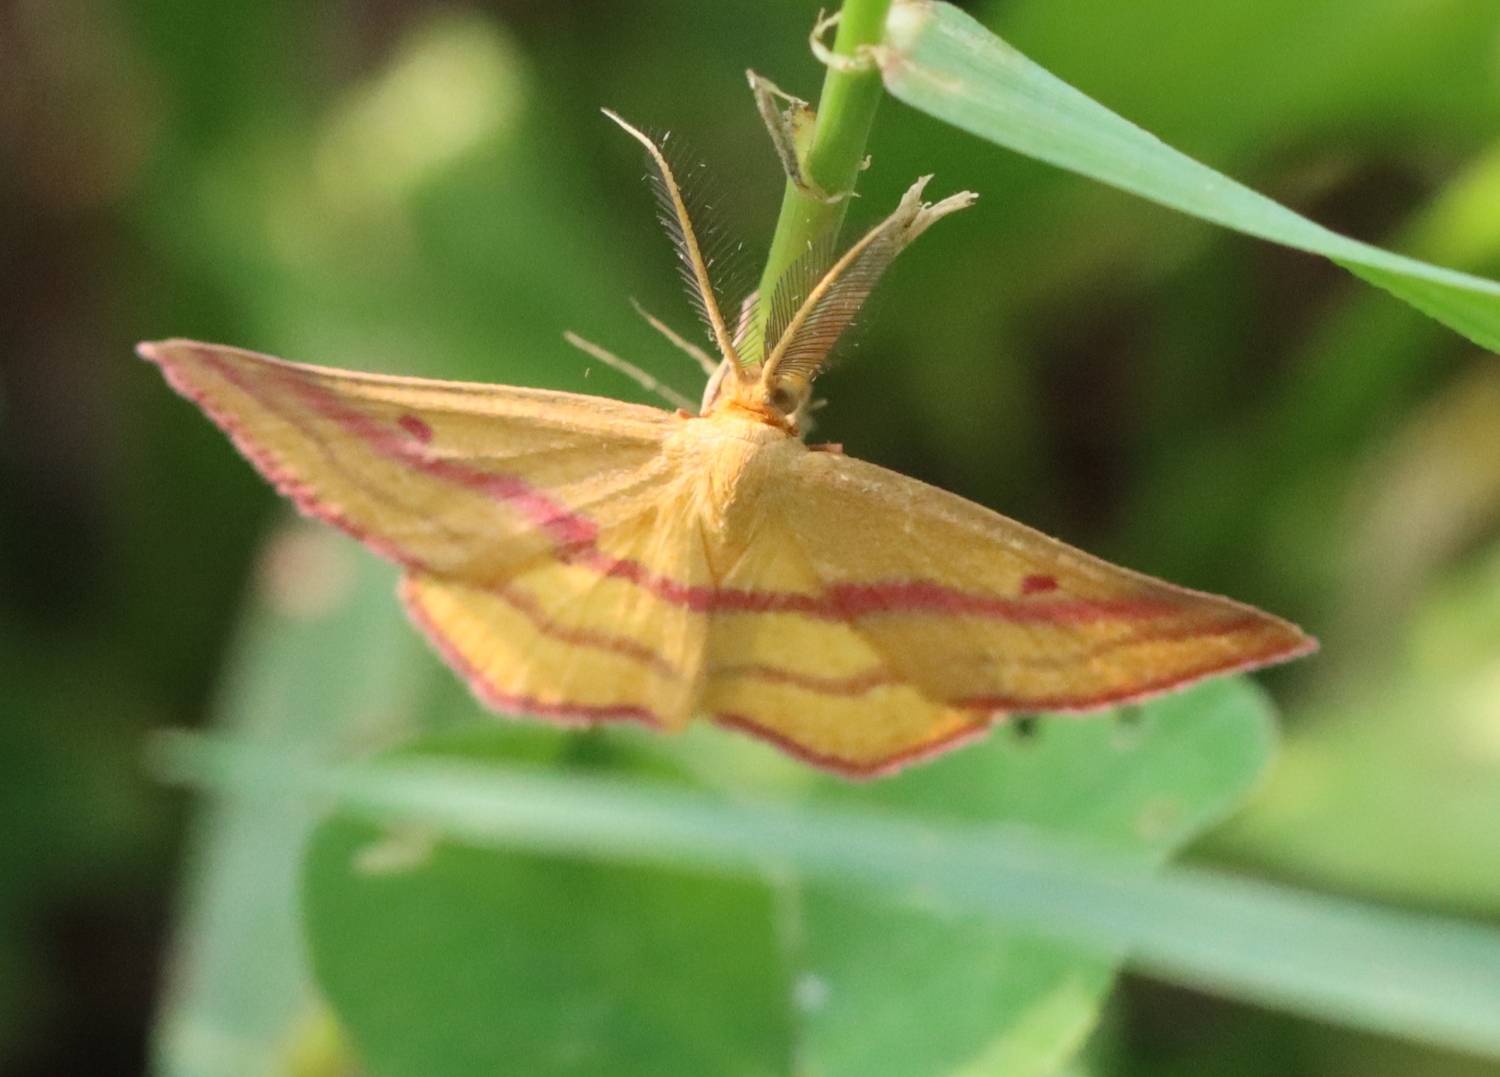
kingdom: Animalia
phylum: Arthropoda
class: Insecta
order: Lepidoptera
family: Geometridae
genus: Haematopis
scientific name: Haematopis grataria
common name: Chickweed geometer
